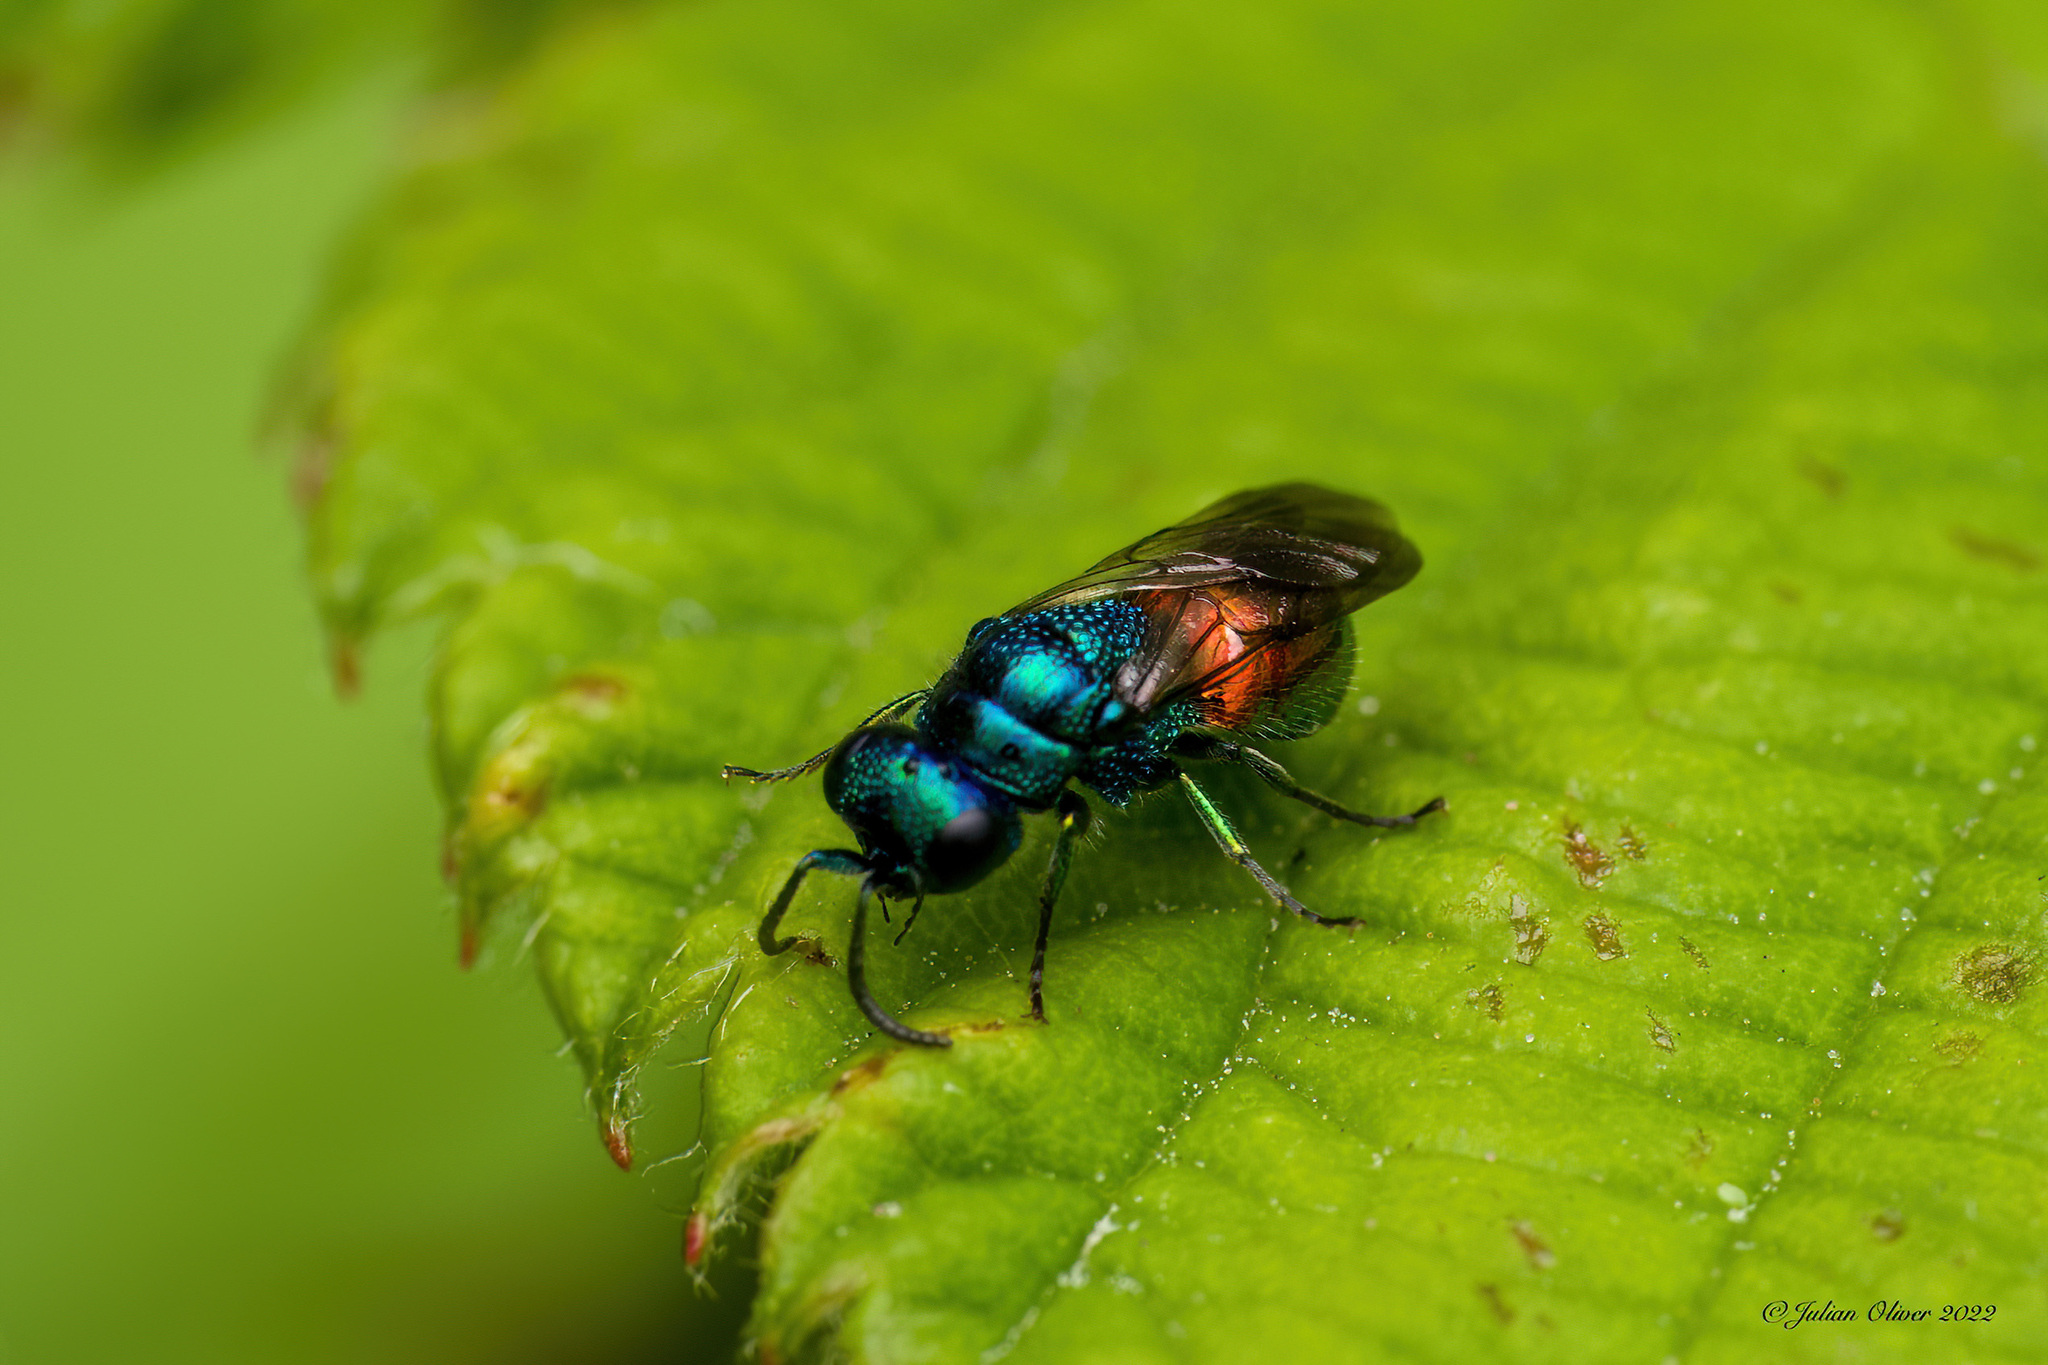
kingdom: Animalia
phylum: Arthropoda
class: Insecta
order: Hymenoptera
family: Chrysididae
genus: Pseudomalus
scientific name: Pseudomalus auratus
